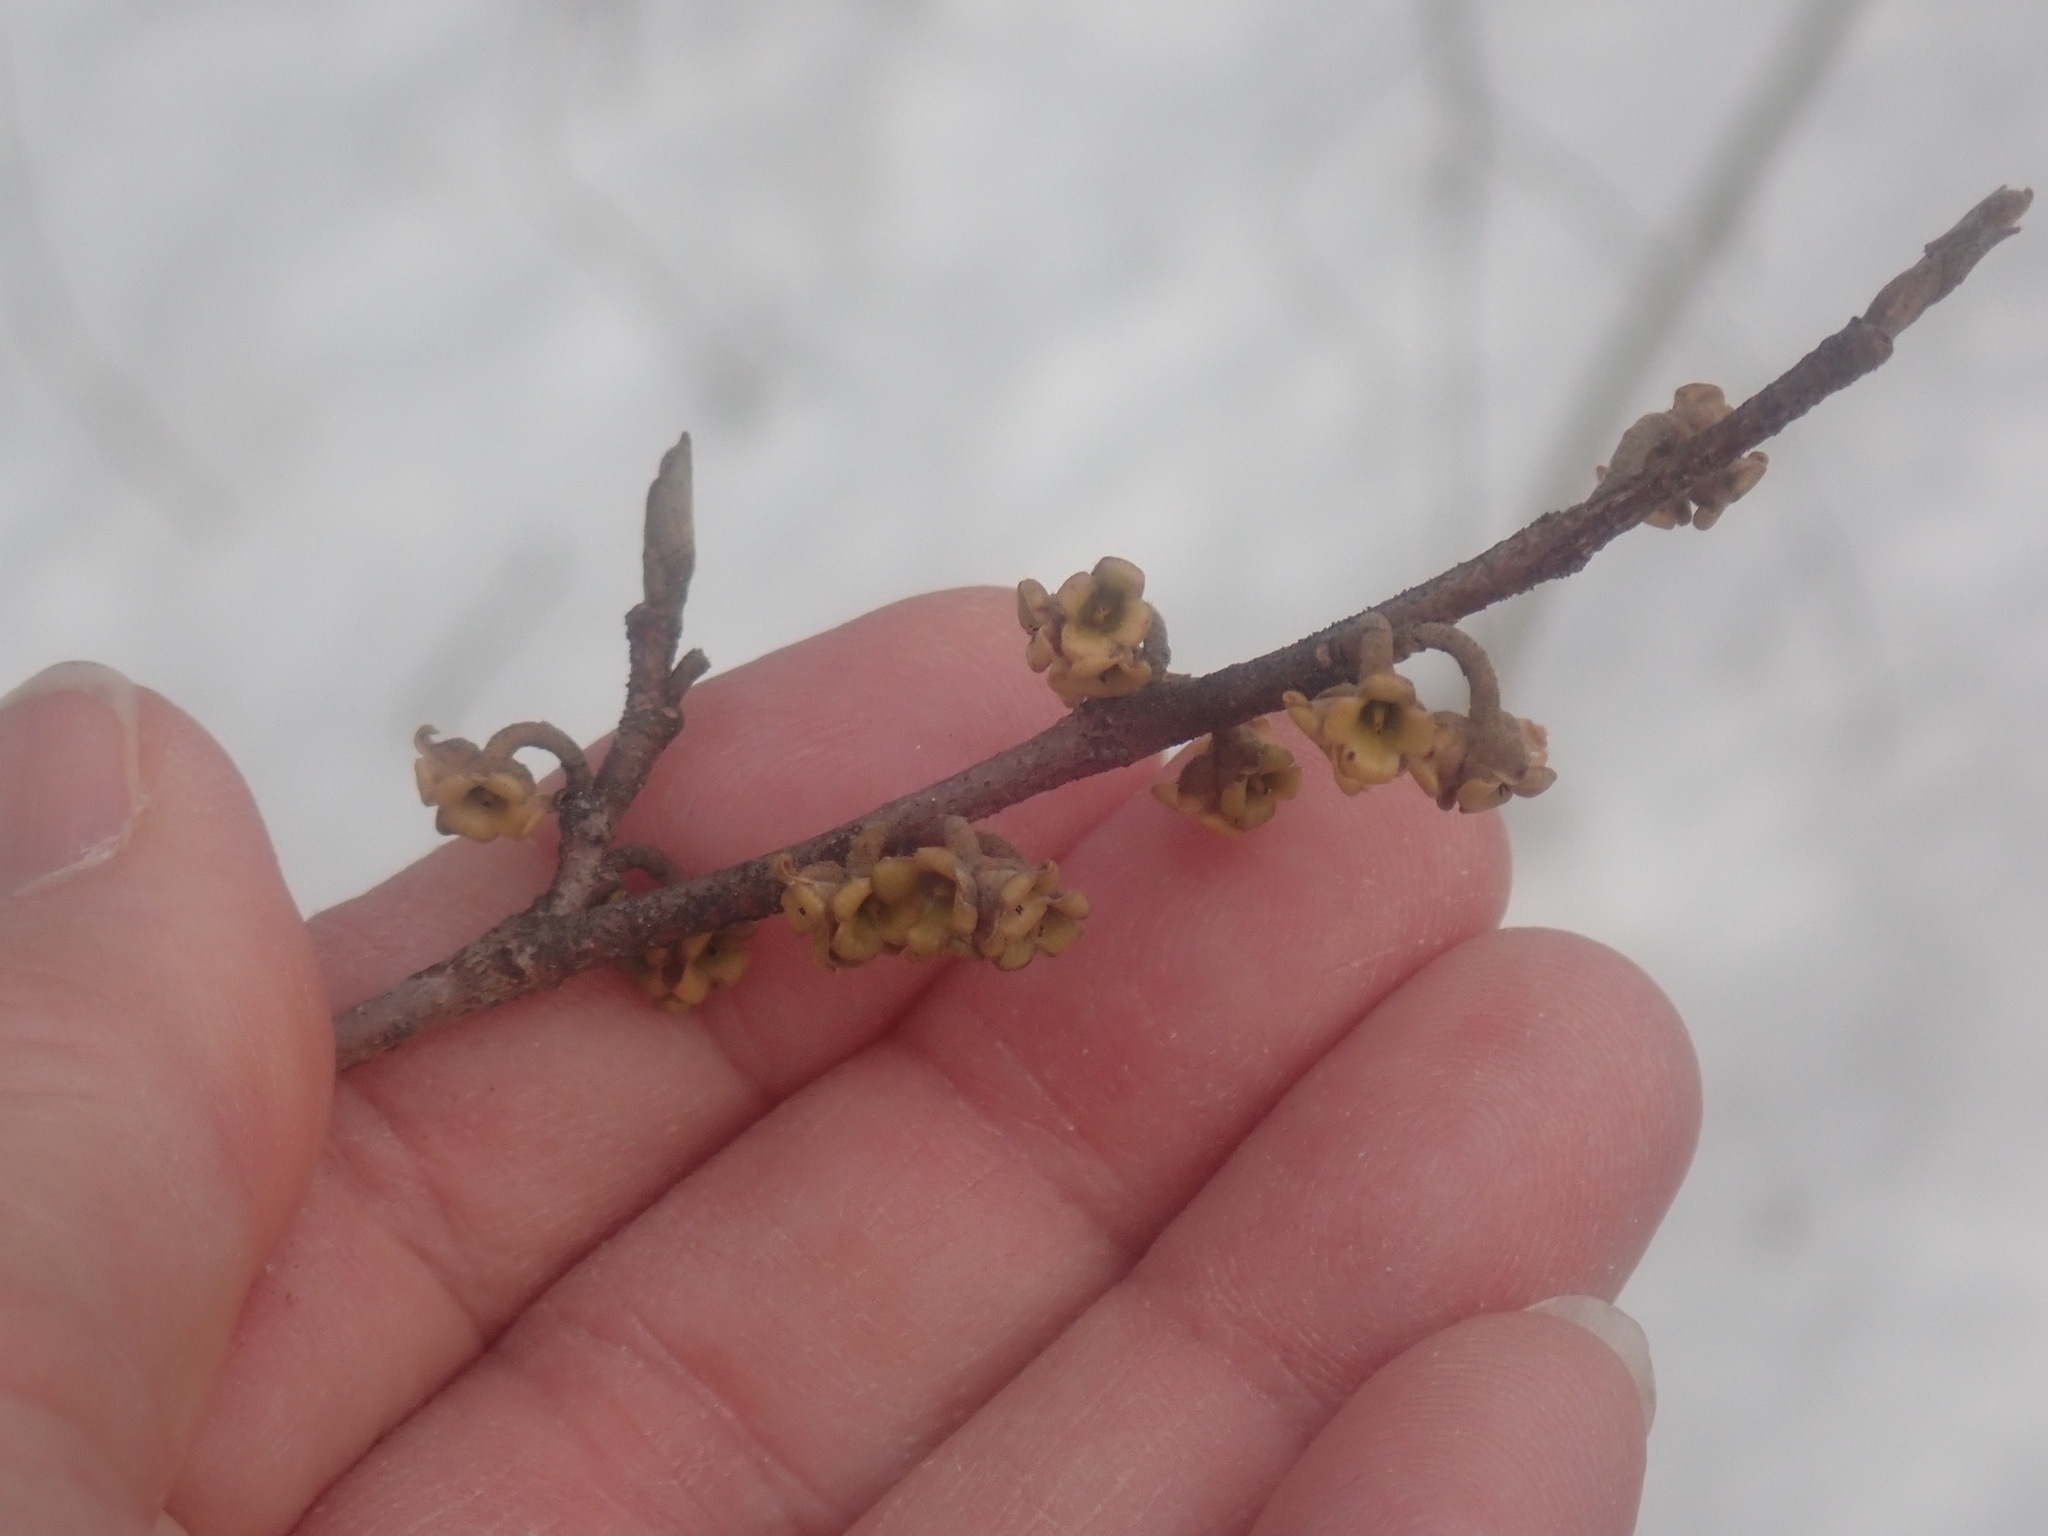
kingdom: Plantae
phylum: Tracheophyta
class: Magnoliopsida
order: Saxifragales
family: Hamamelidaceae
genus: Hamamelis
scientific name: Hamamelis virginiana
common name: Witch-hazel
